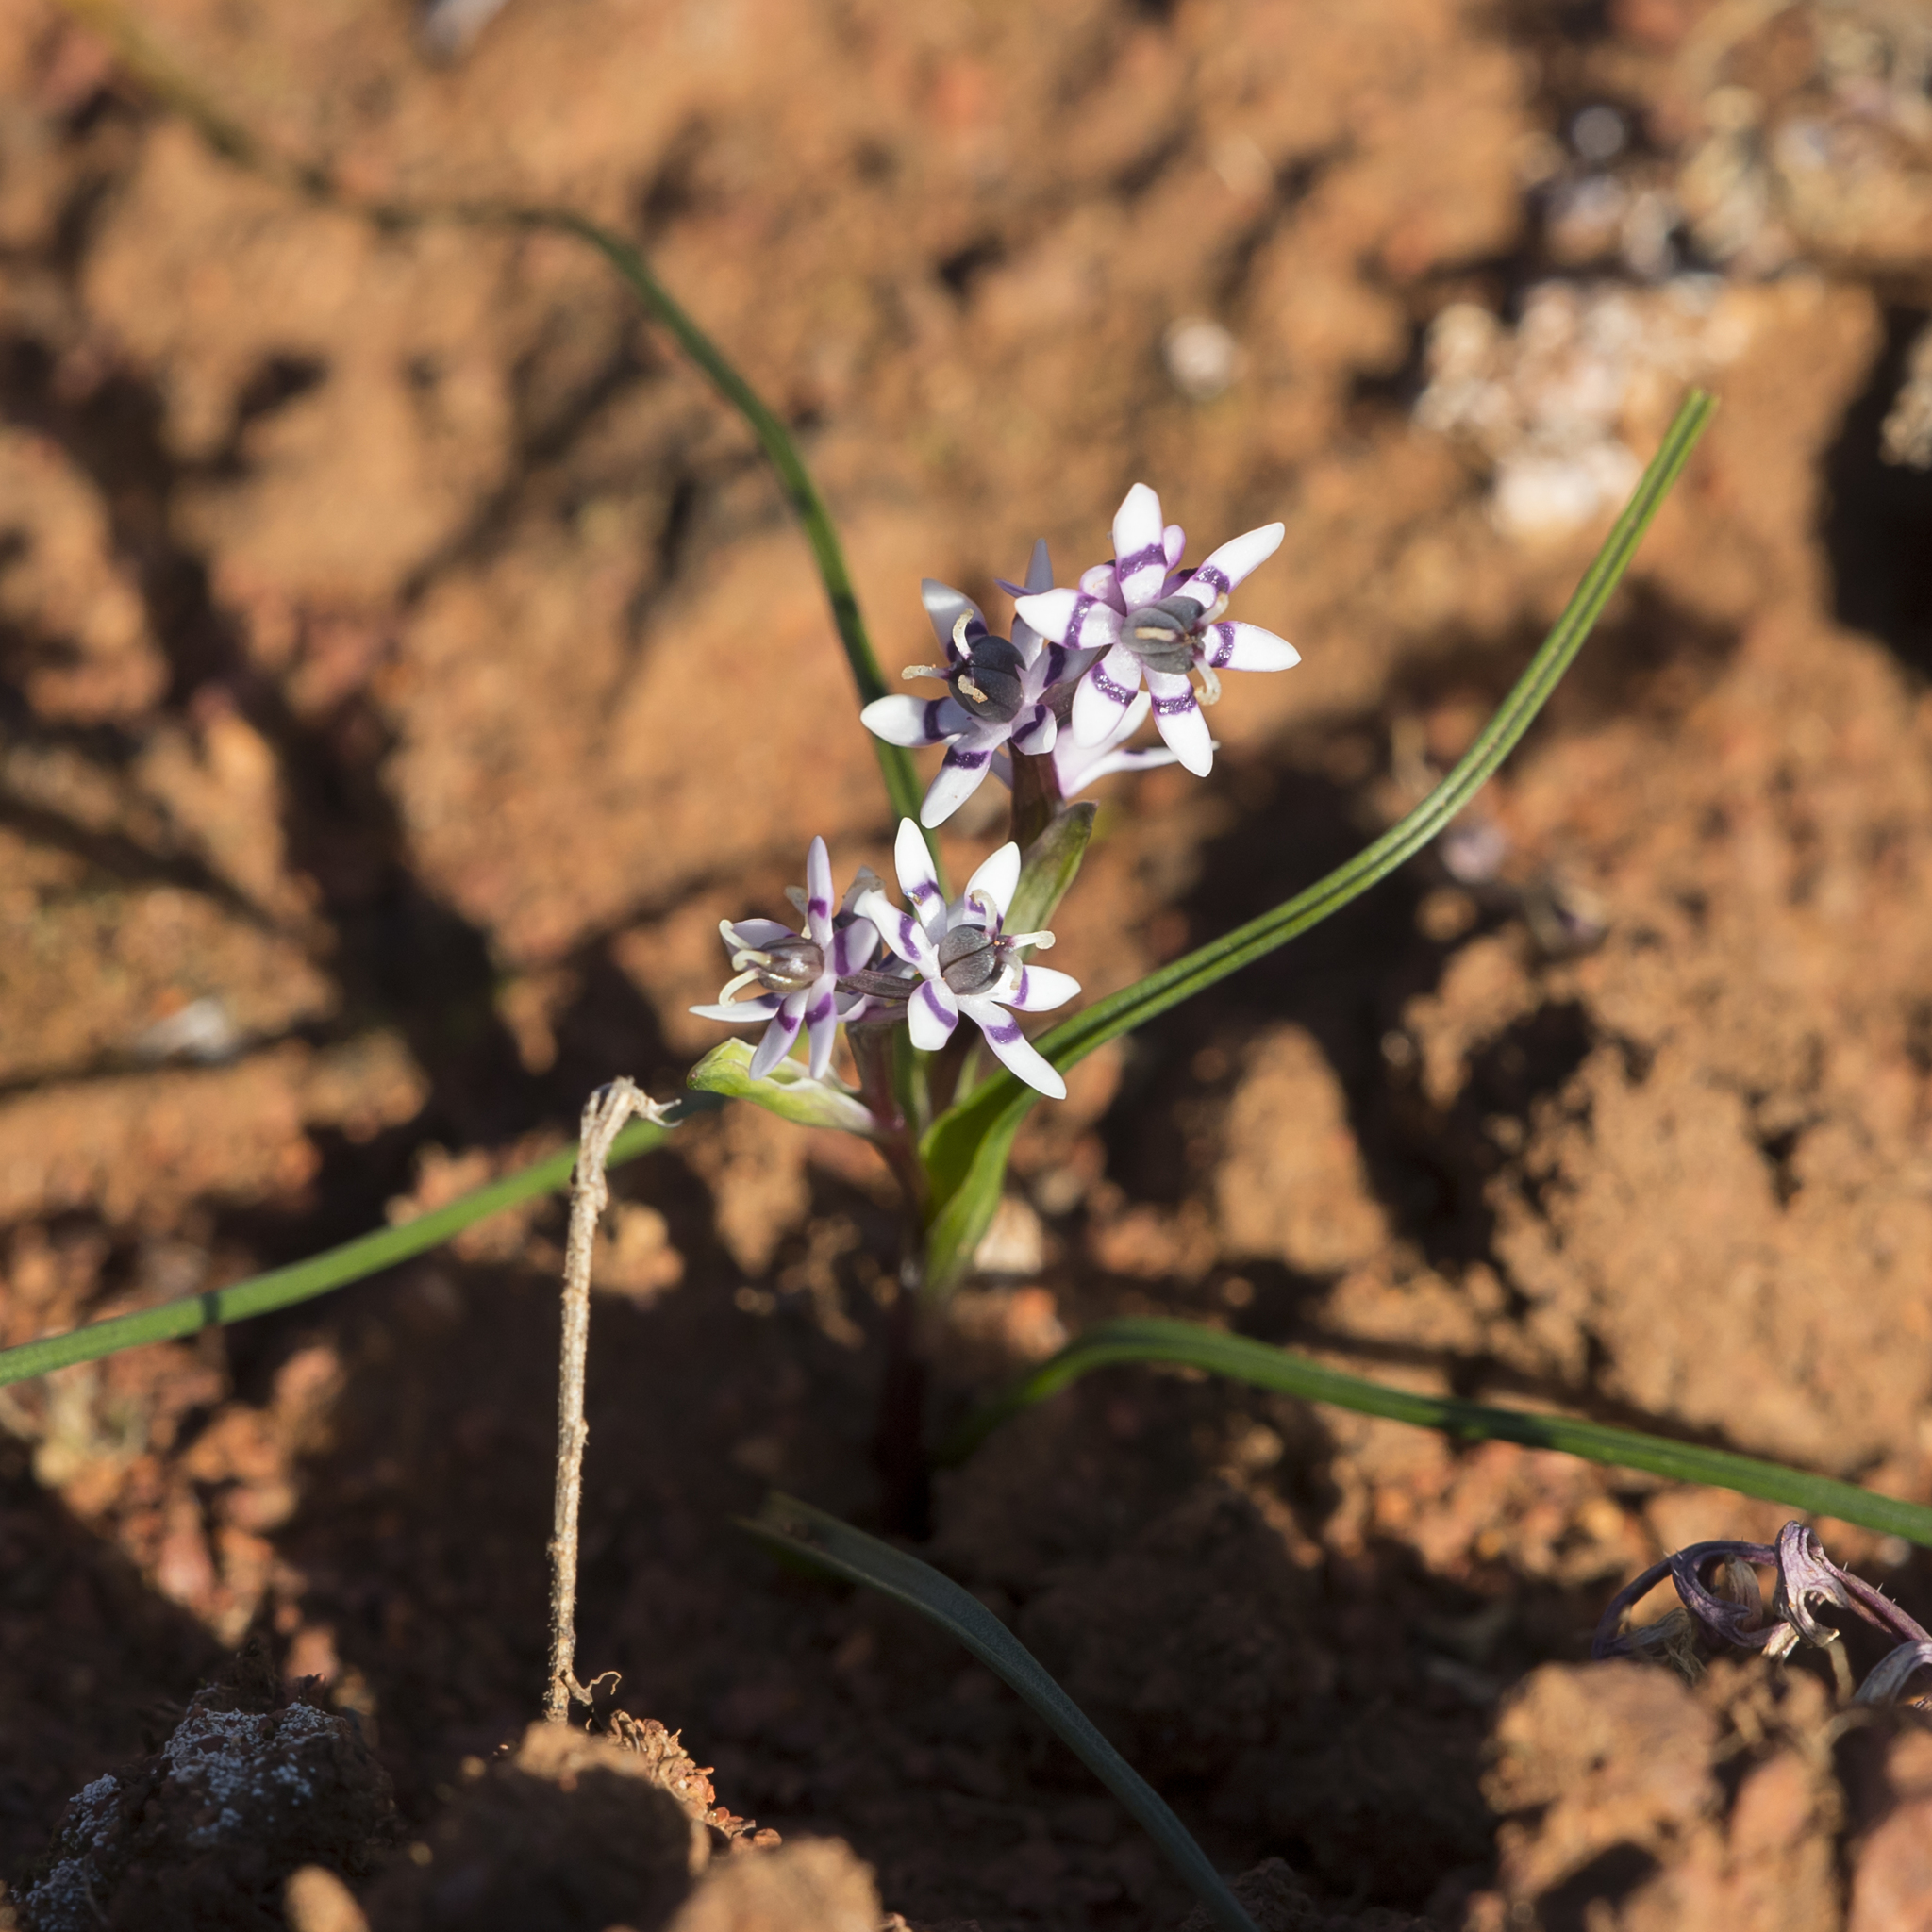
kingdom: Plantae
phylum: Tracheophyta
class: Liliopsida
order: Liliales
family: Colchicaceae
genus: Wurmbea
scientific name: Wurmbea dioica
